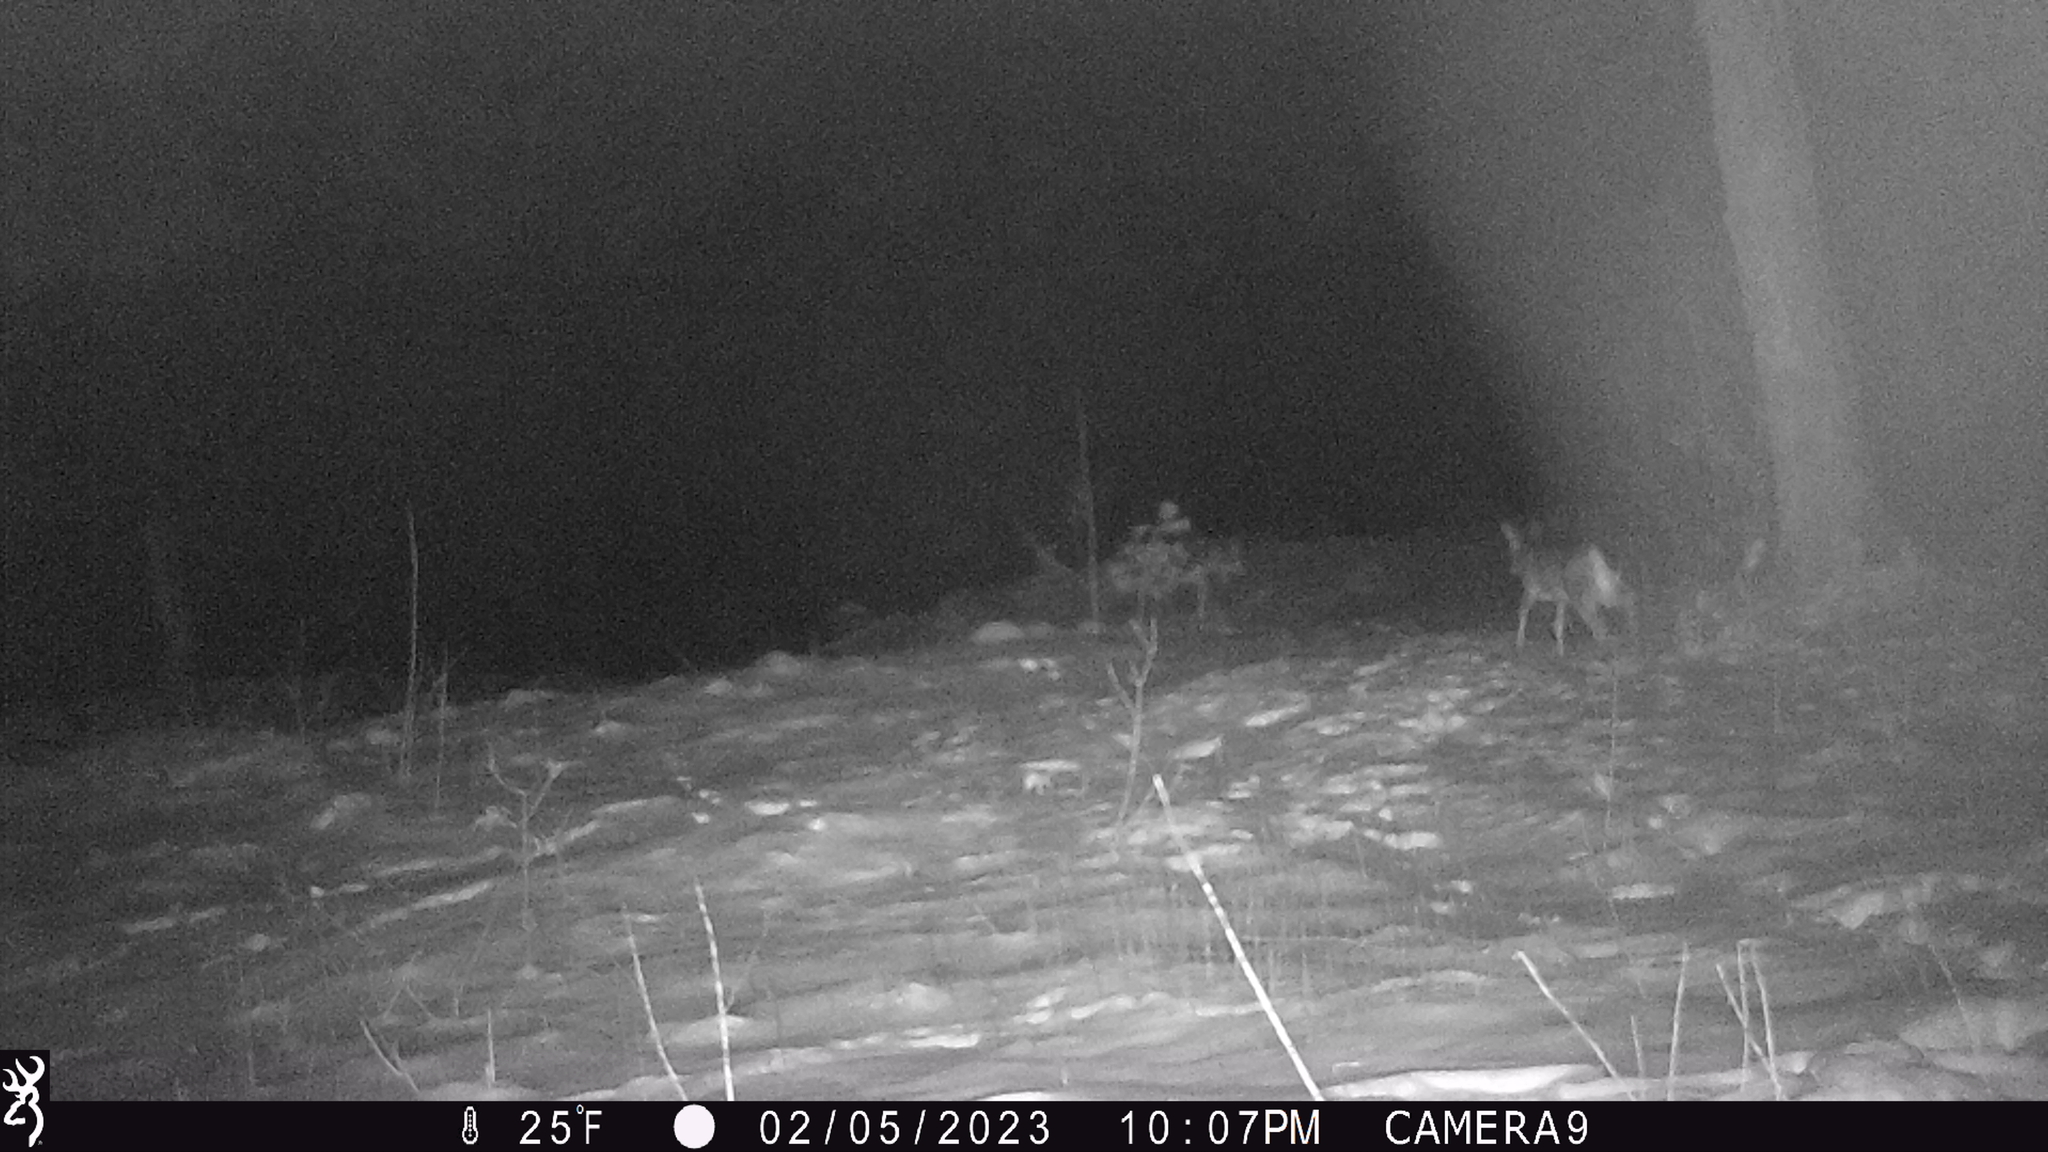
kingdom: Animalia
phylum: Chordata
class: Mammalia
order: Artiodactyla
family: Cervidae
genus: Odocoileus
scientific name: Odocoileus virginianus
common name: White-tailed deer
